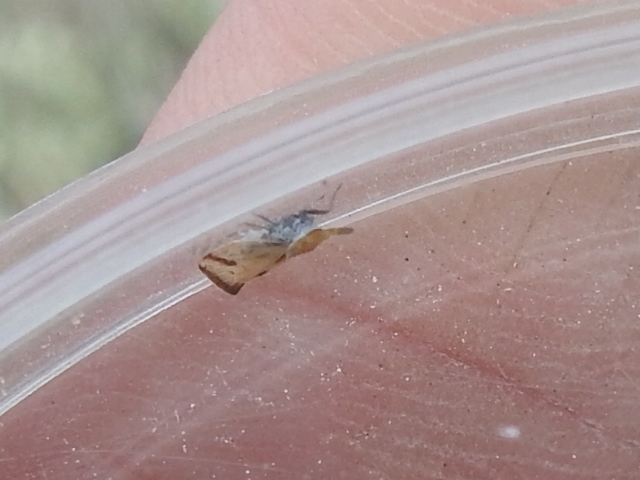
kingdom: Animalia
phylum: Arthropoda
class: Insecta
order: Hemiptera
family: Delphacidae
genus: Bostaera
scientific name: Bostaera nasuta
